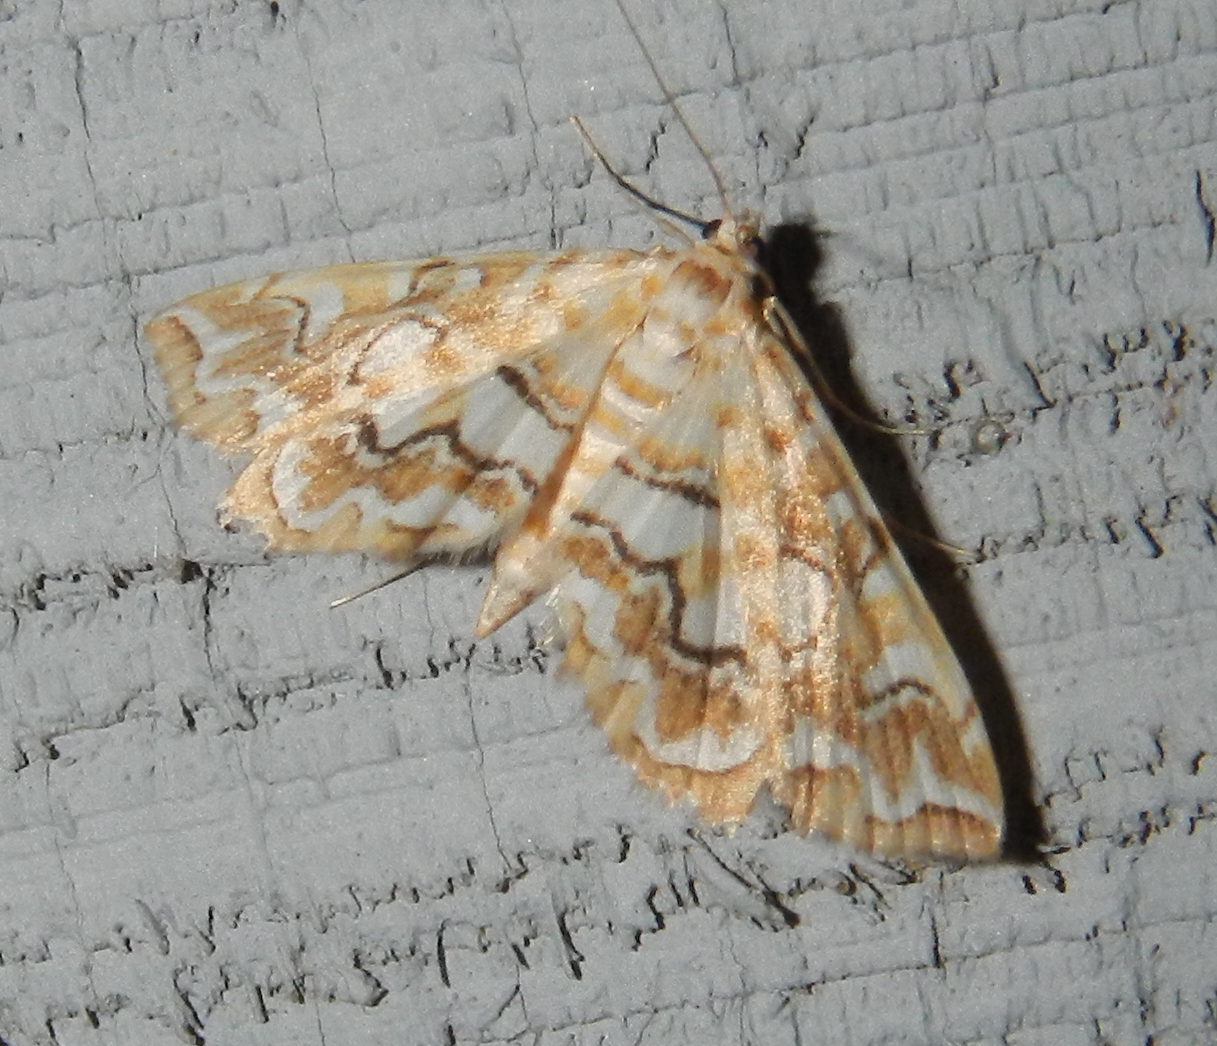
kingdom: Animalia
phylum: Arthropoda
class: Insecta
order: Lepidoptera
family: Crambidae
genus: Elophila
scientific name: Elophila icciusalis
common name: Pondside pyralid moth
